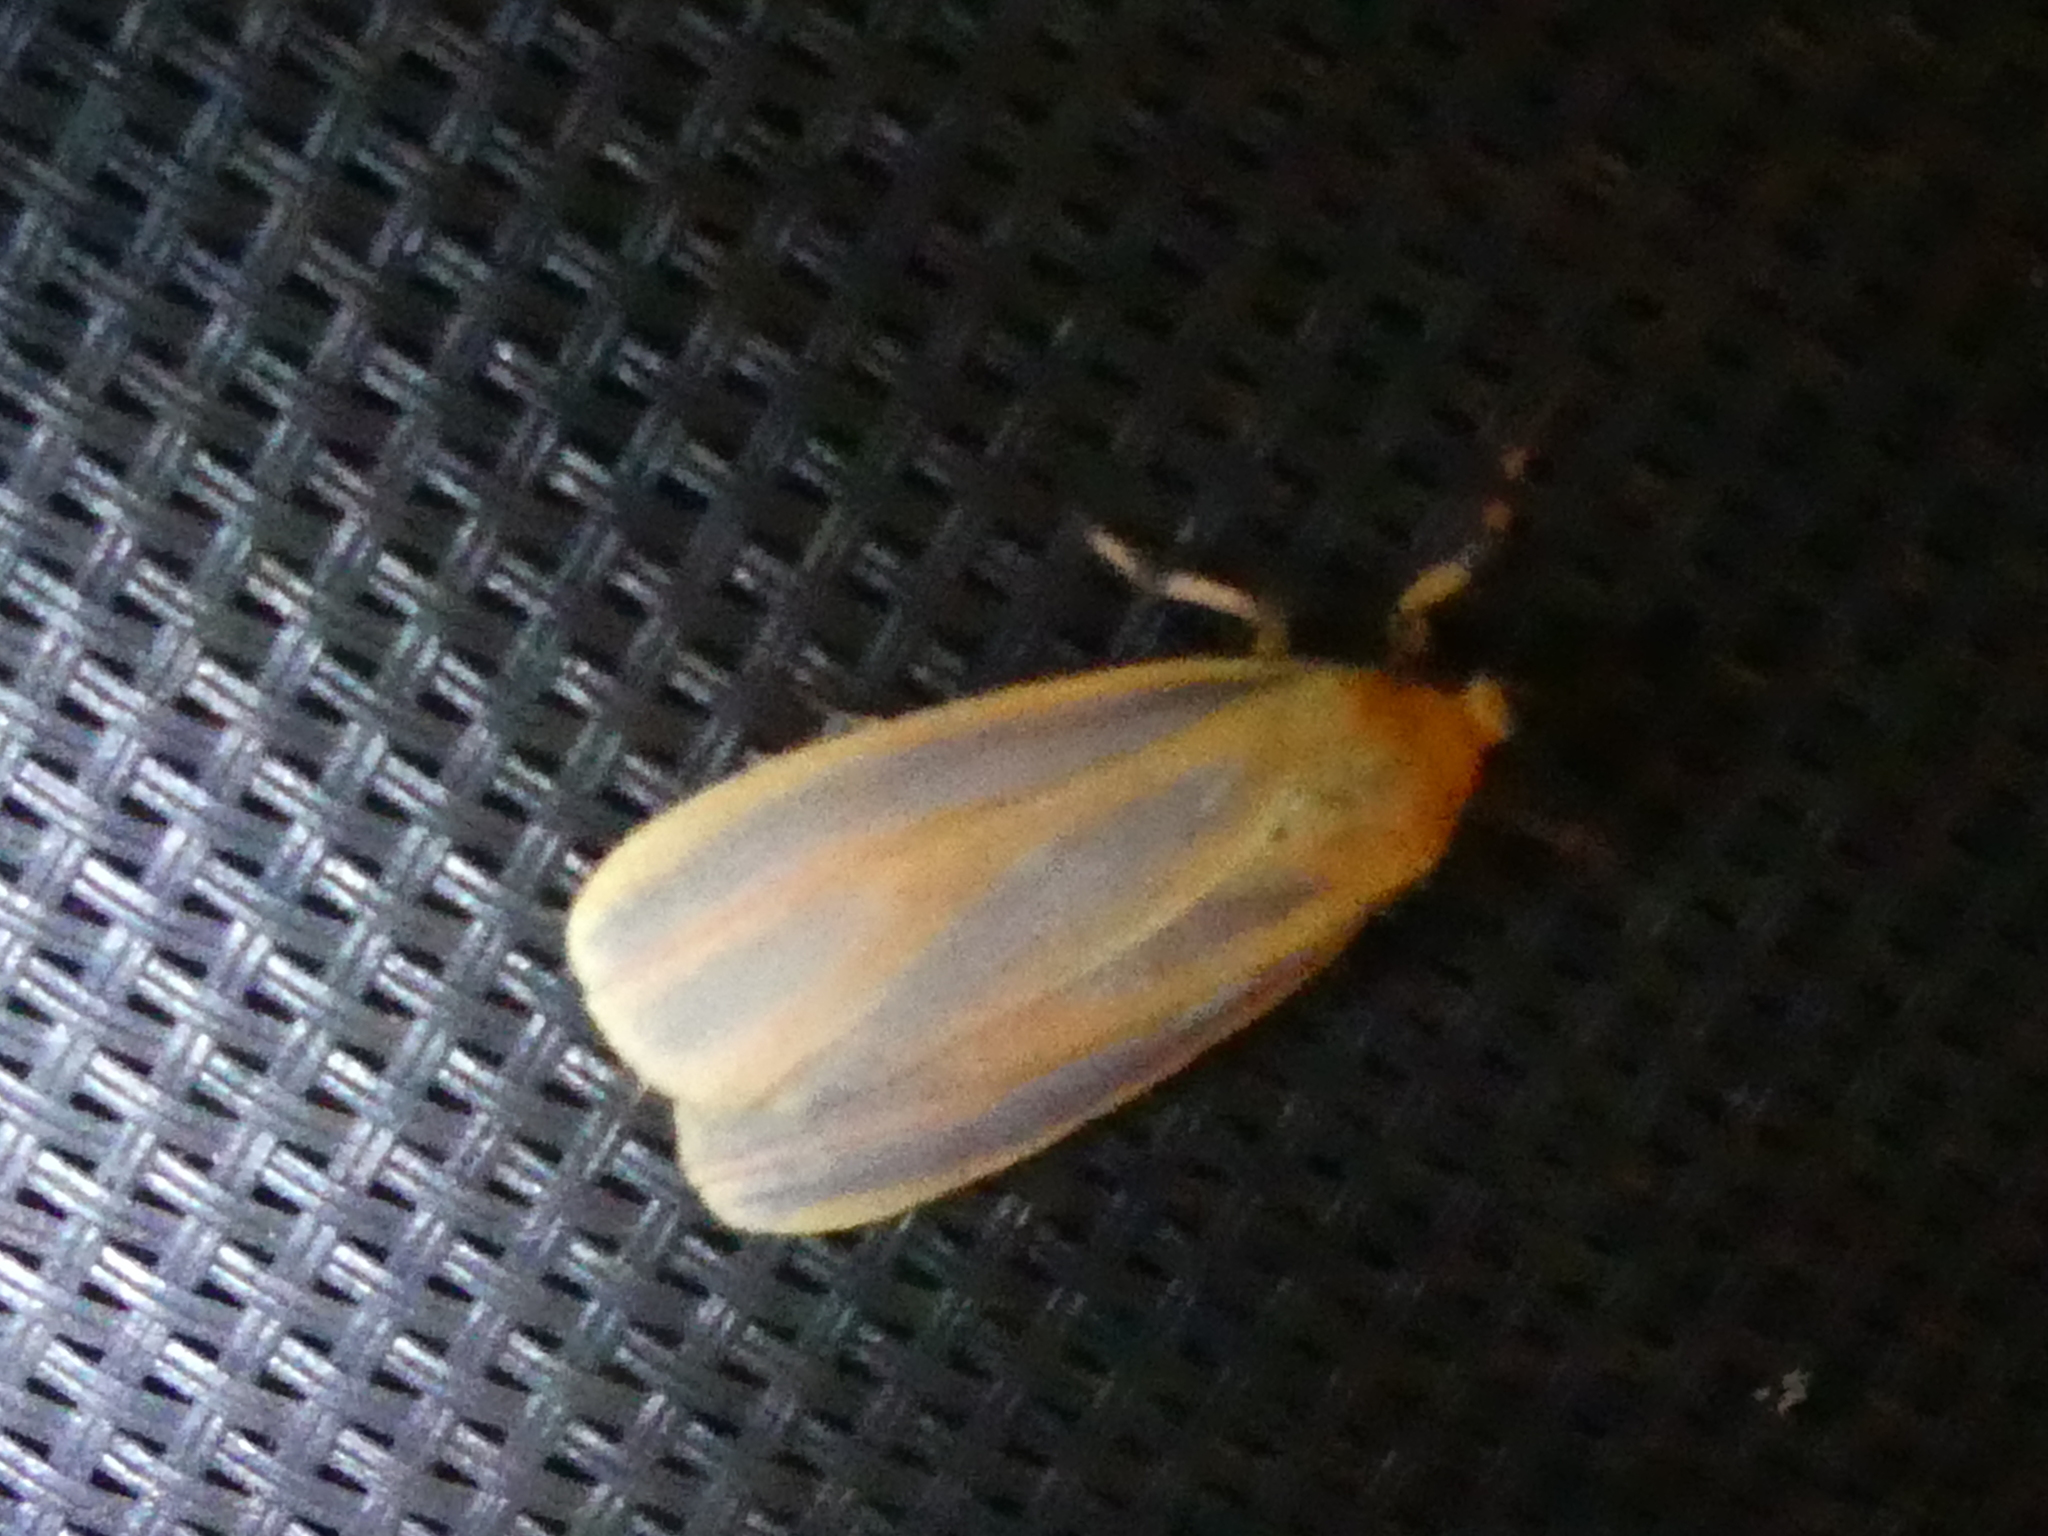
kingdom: Animalia
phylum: Arthropoda
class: Insecta
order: Lepidoptera
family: Erebidae
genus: Hypoprepia
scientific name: Hypoprepia fucosa
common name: Painted lichen moth
